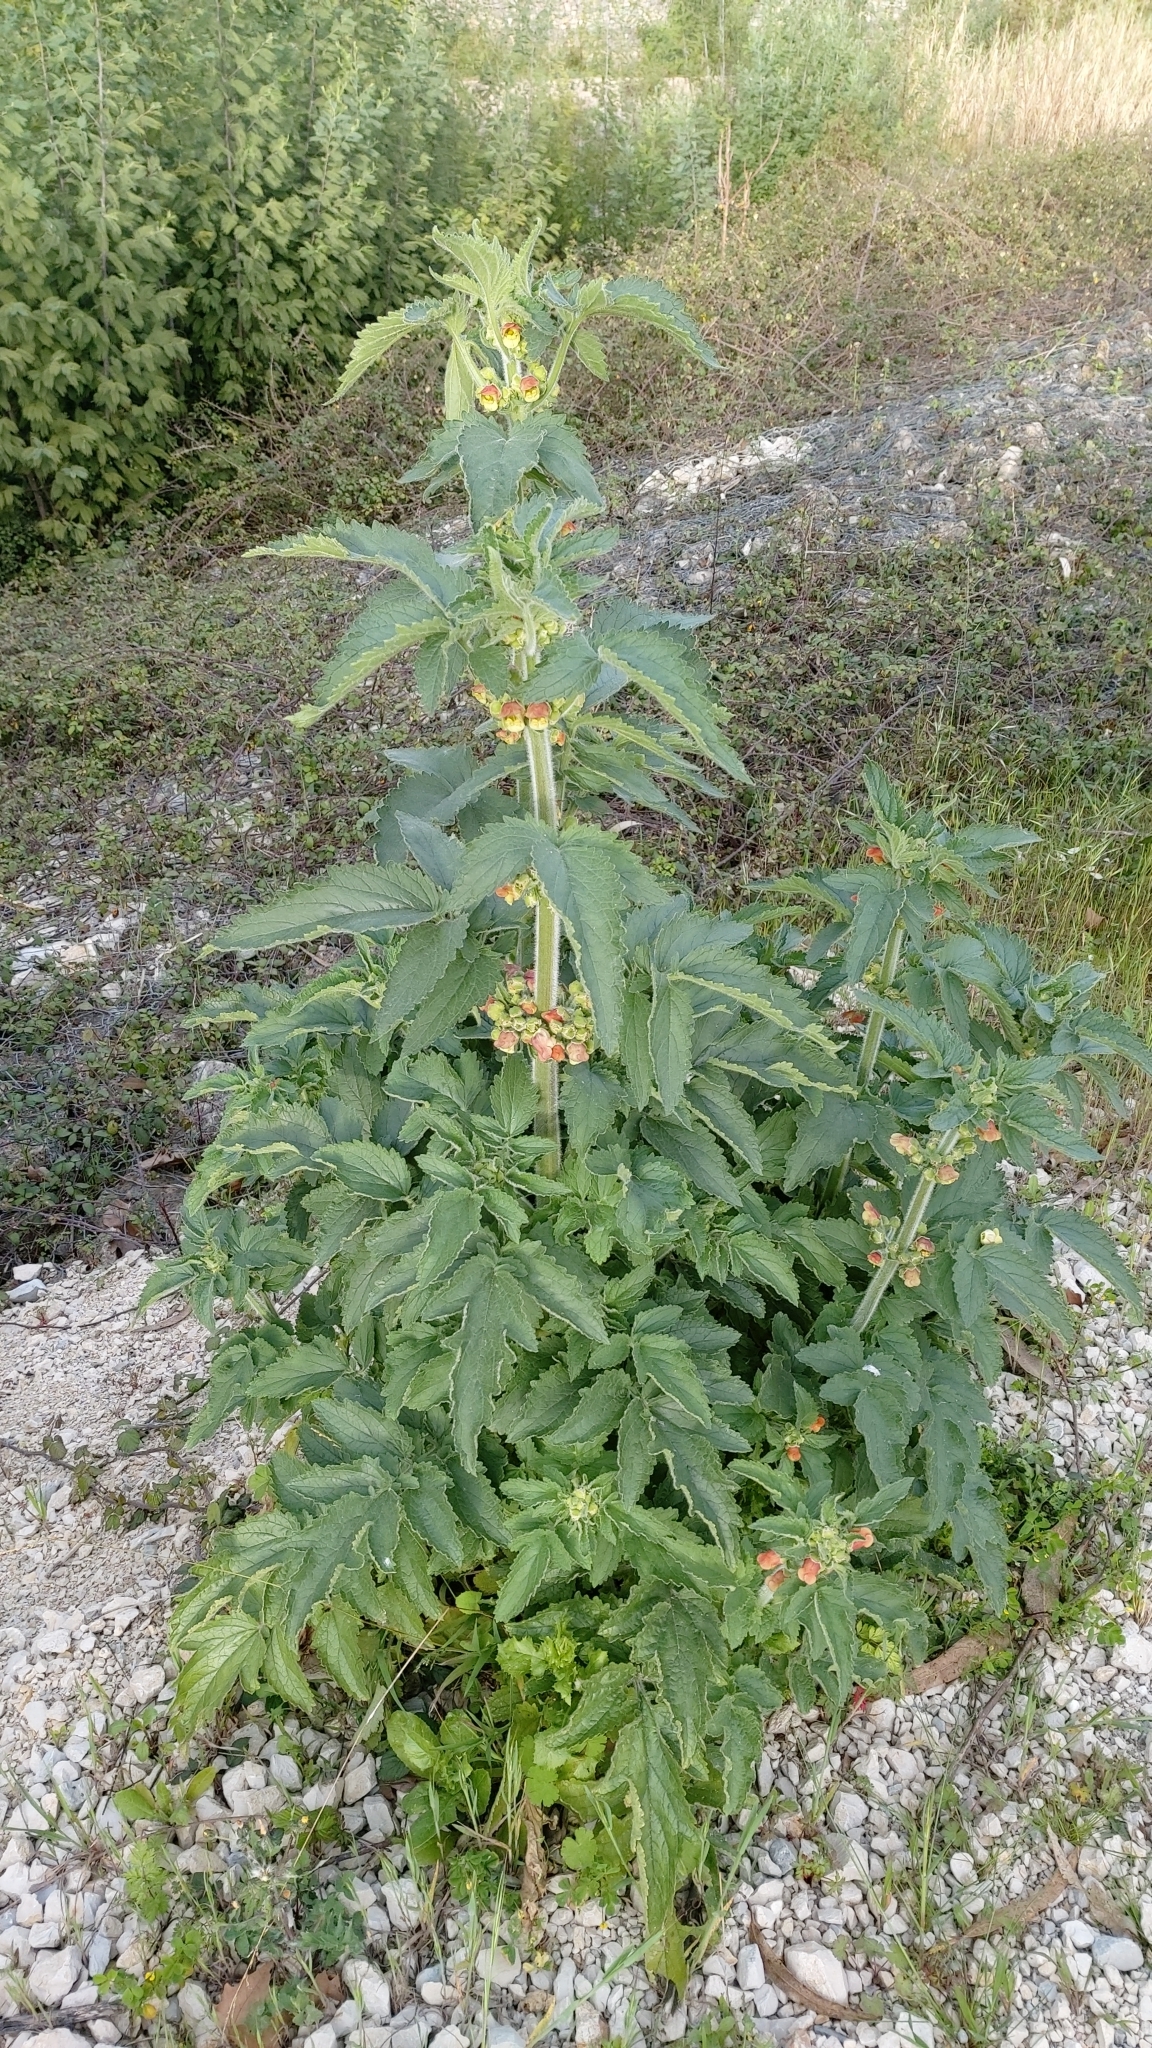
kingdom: Plantae
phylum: Tracheophyta
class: Magnoliopsida
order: Lamiales
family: Scrophulariaceae
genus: Scrophularia
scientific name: Scrophularia grandiflora
